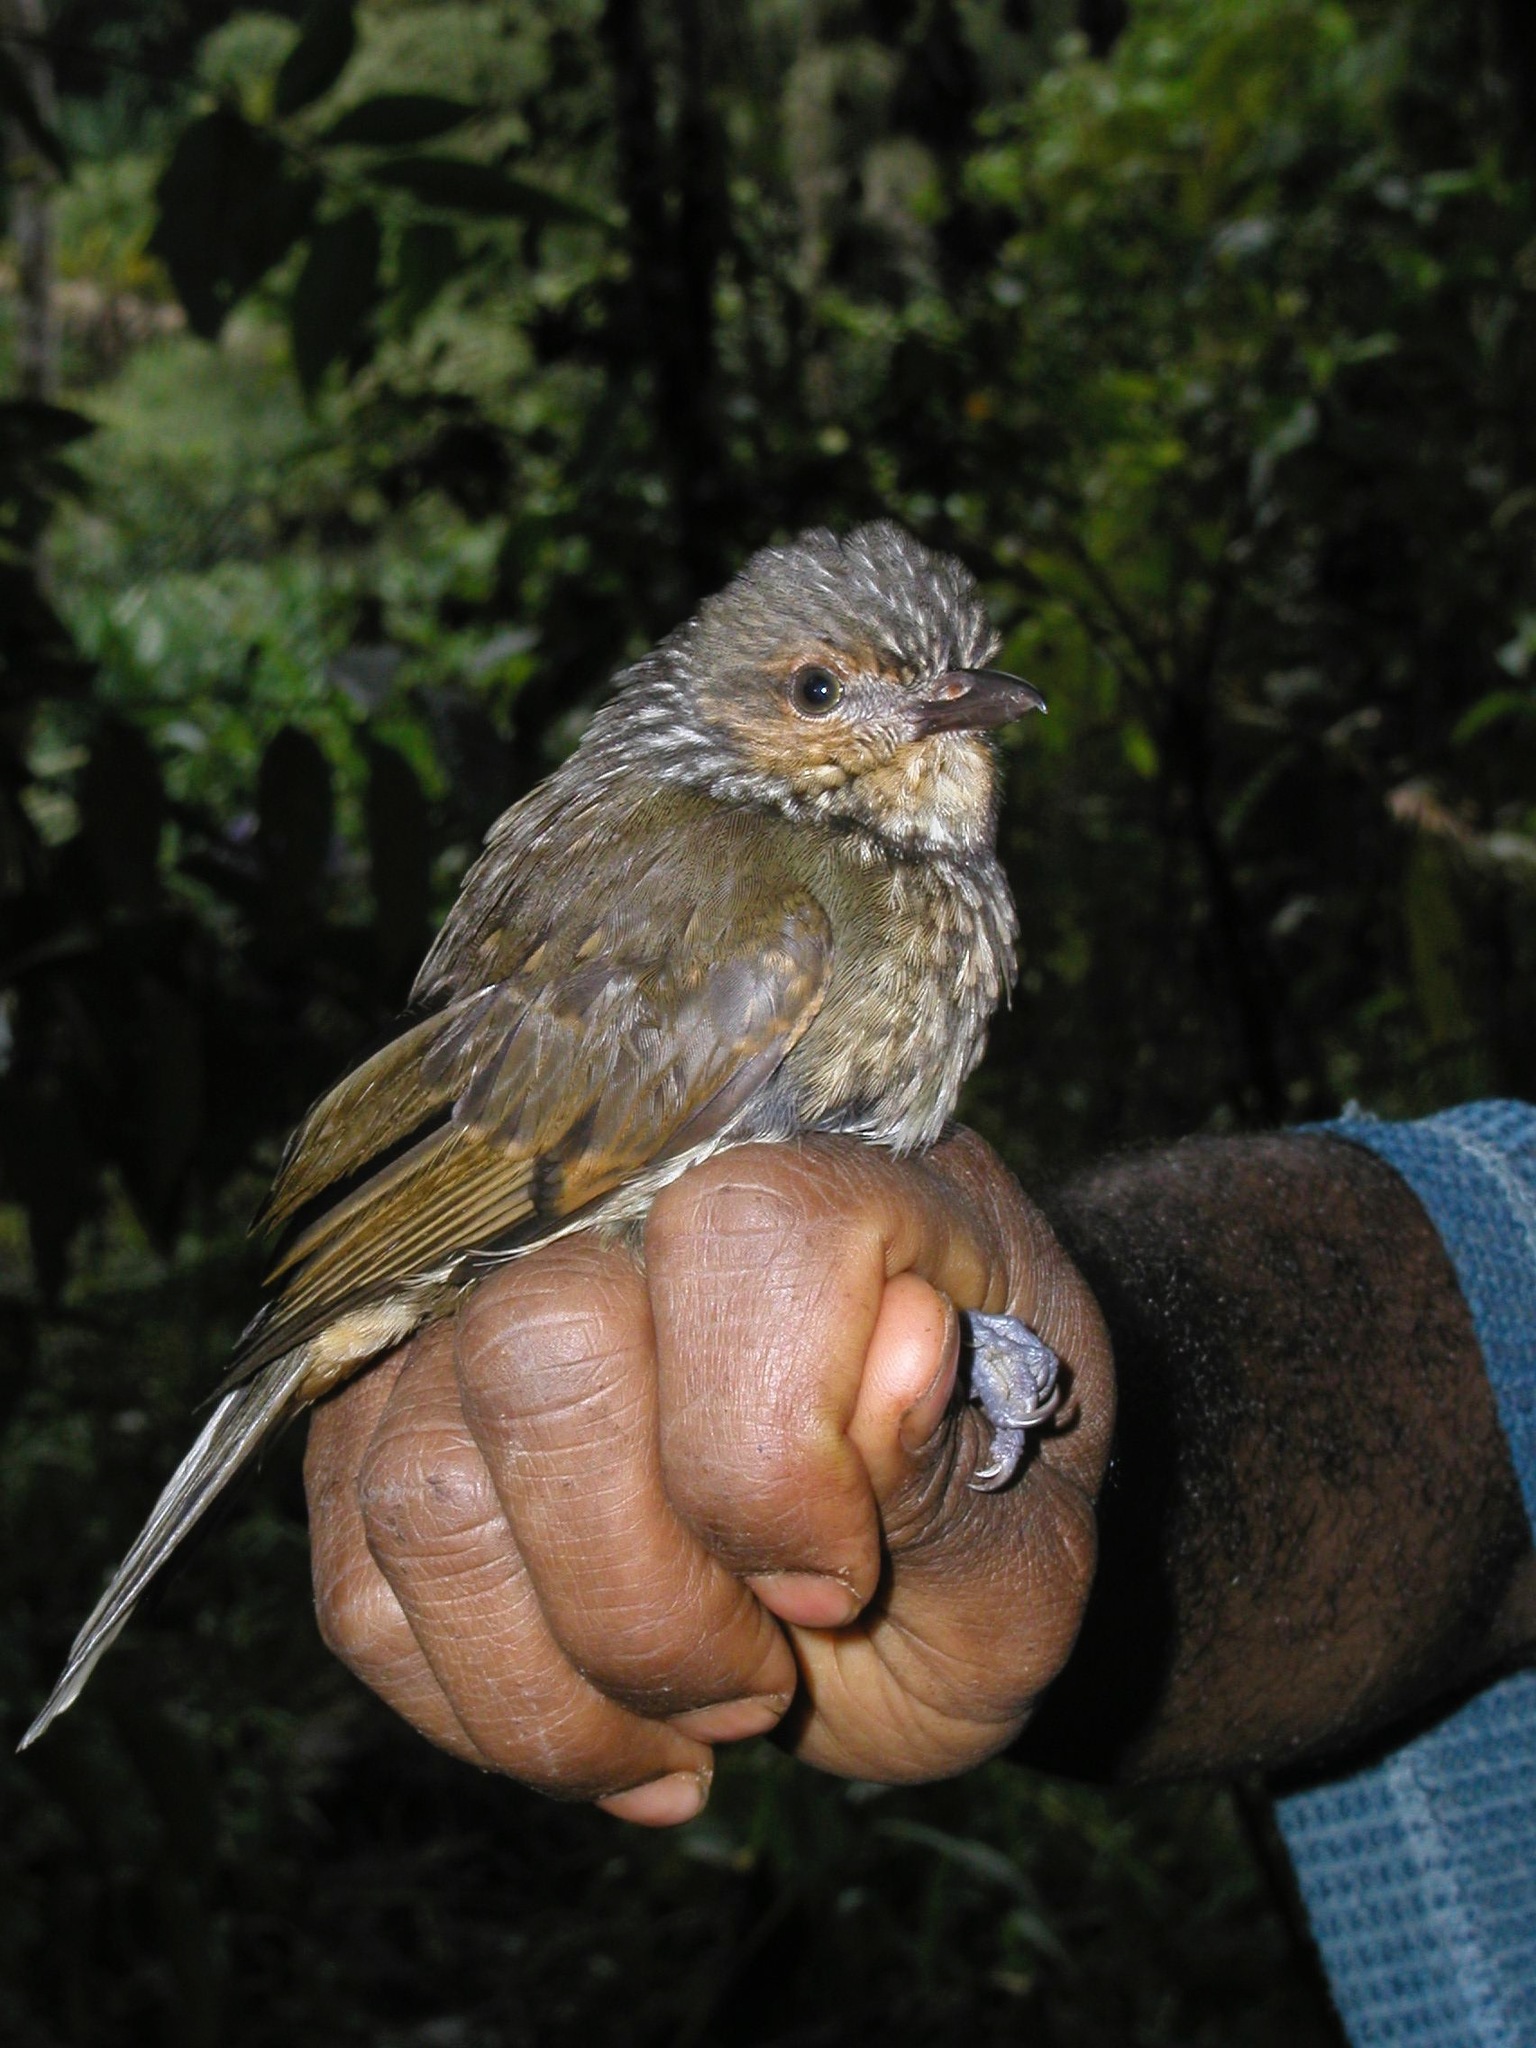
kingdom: Animalia
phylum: Chordata
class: Aves
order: Passeriformes
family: Pachycephalidae
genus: Rhagologus
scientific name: Rhagologus leucostigma
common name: Mottled whistler
